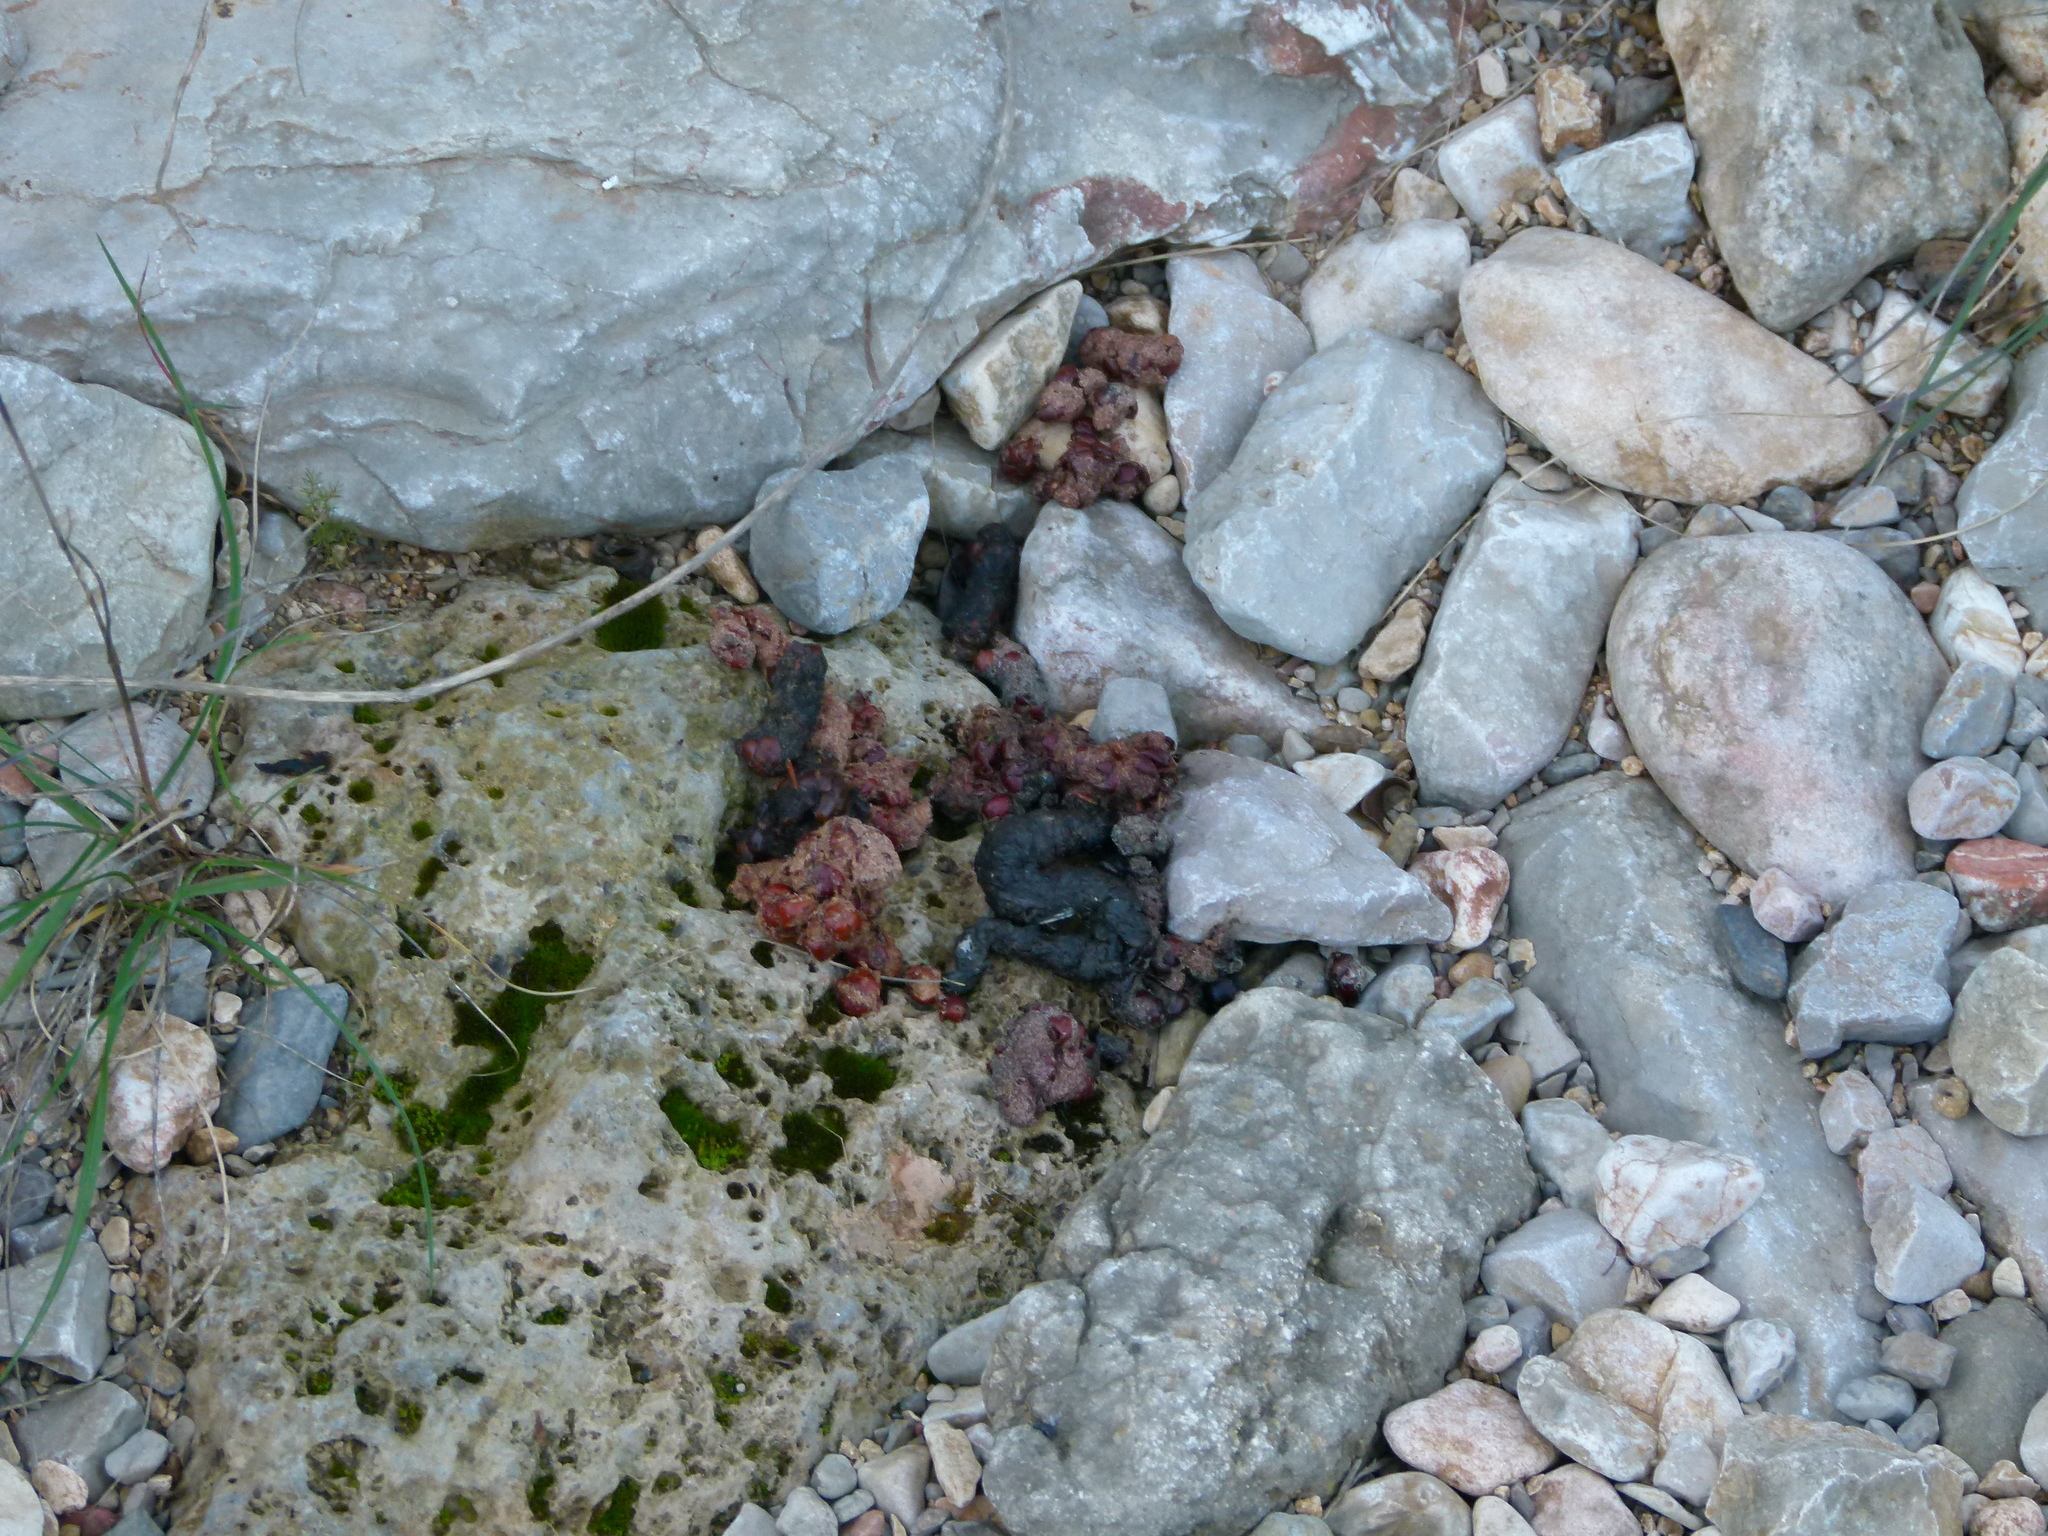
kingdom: Animalia
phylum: Chordata
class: Mammalia
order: Carnivora
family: Viverridae
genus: Genetta
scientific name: Genetta genetta
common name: Common genet
